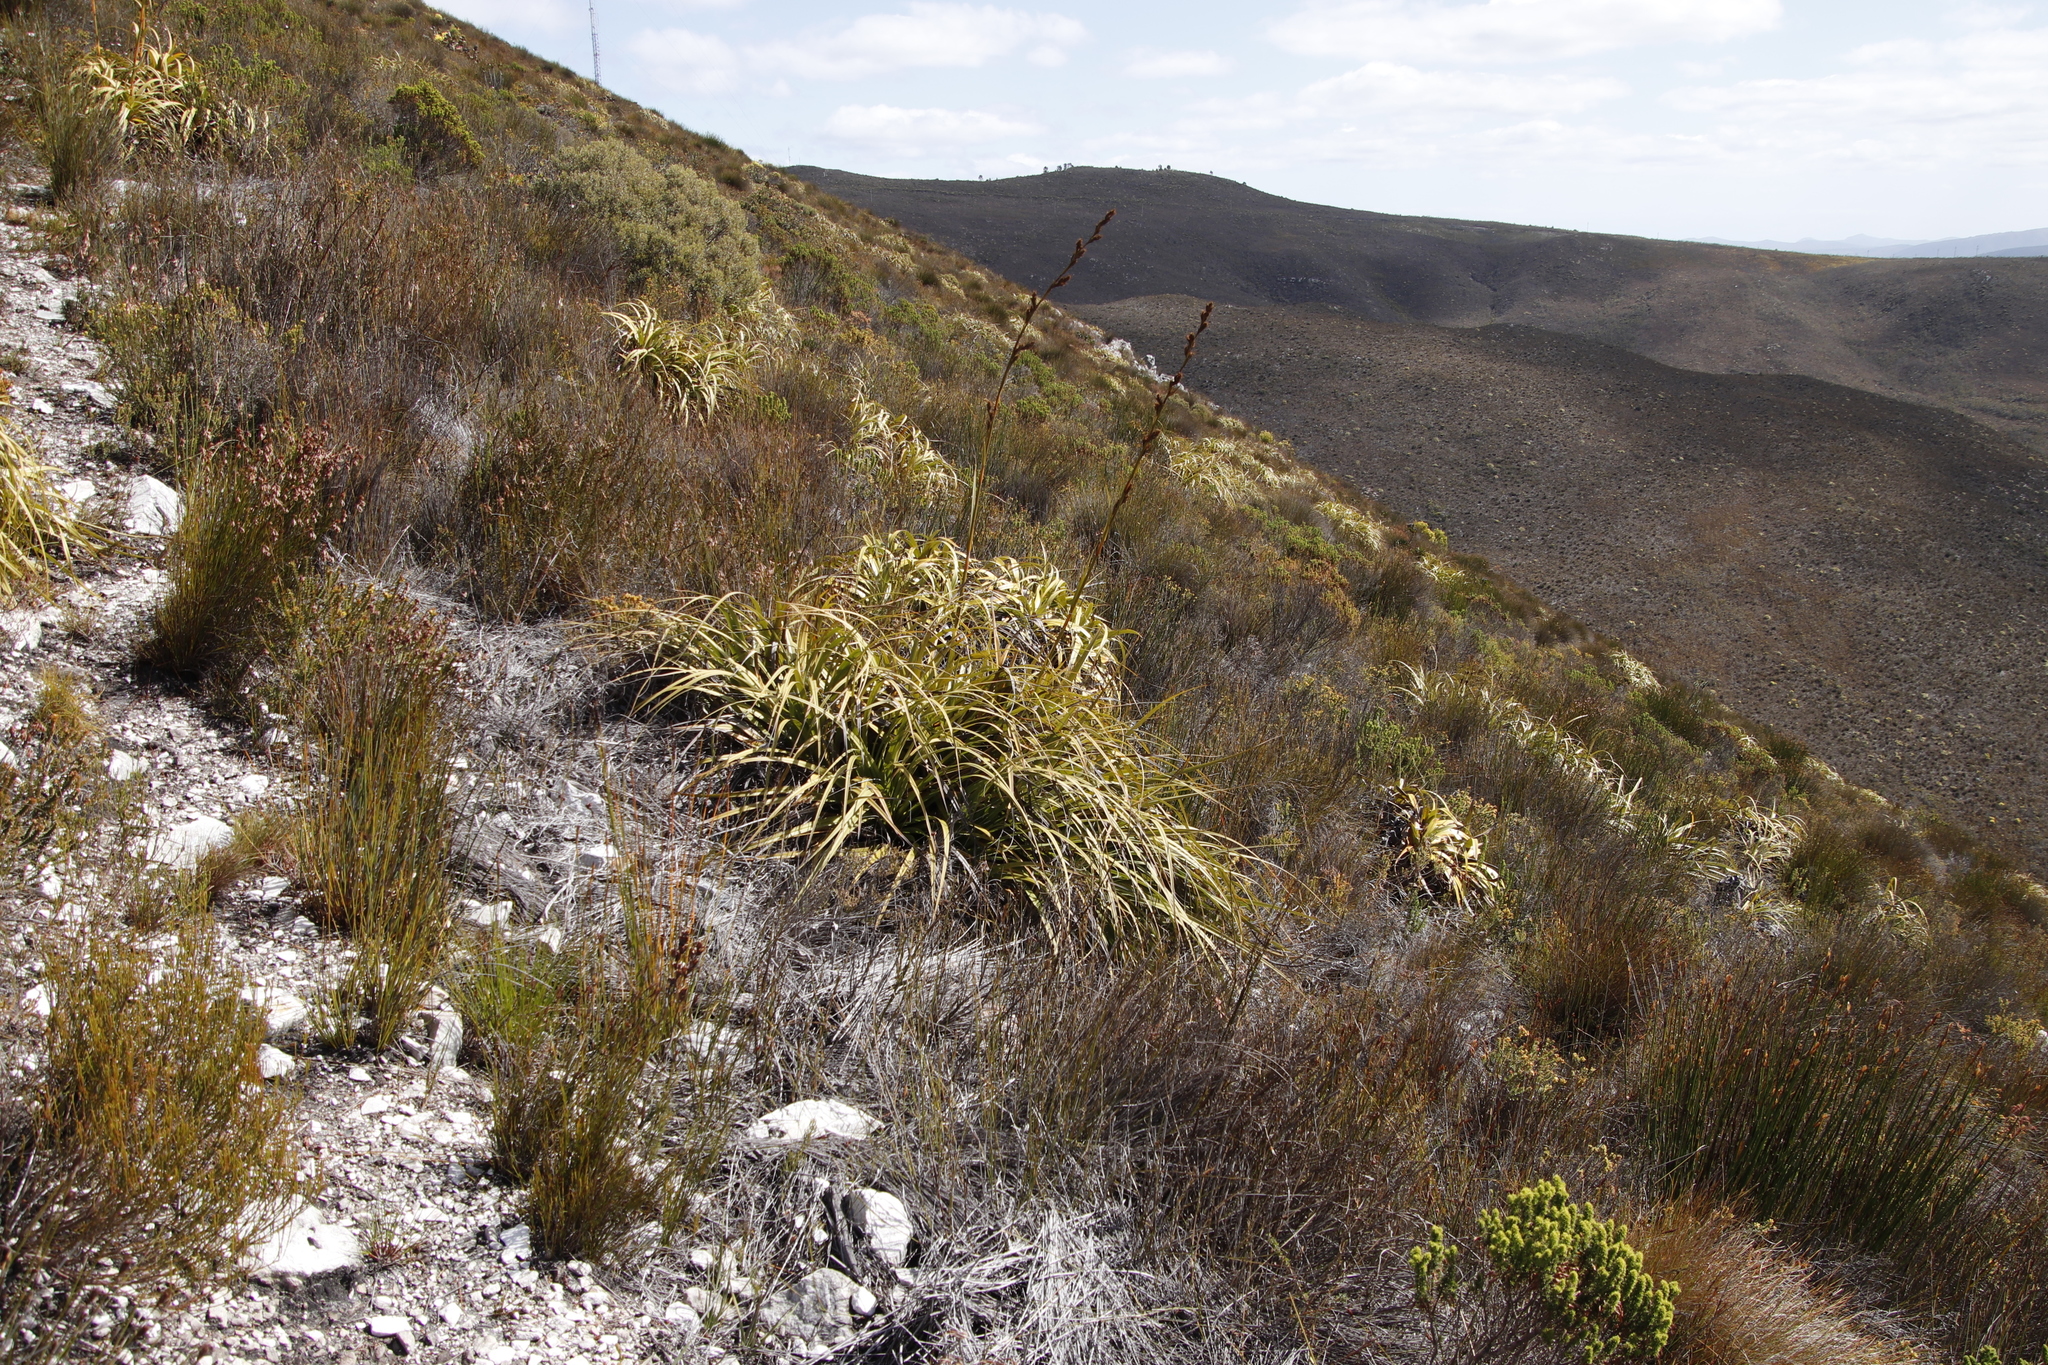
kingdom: Plantae
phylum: Tracheophyta
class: Liliopsida
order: Poales
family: Cyperaceae
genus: Tetraria
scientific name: Tetraria thermalis
